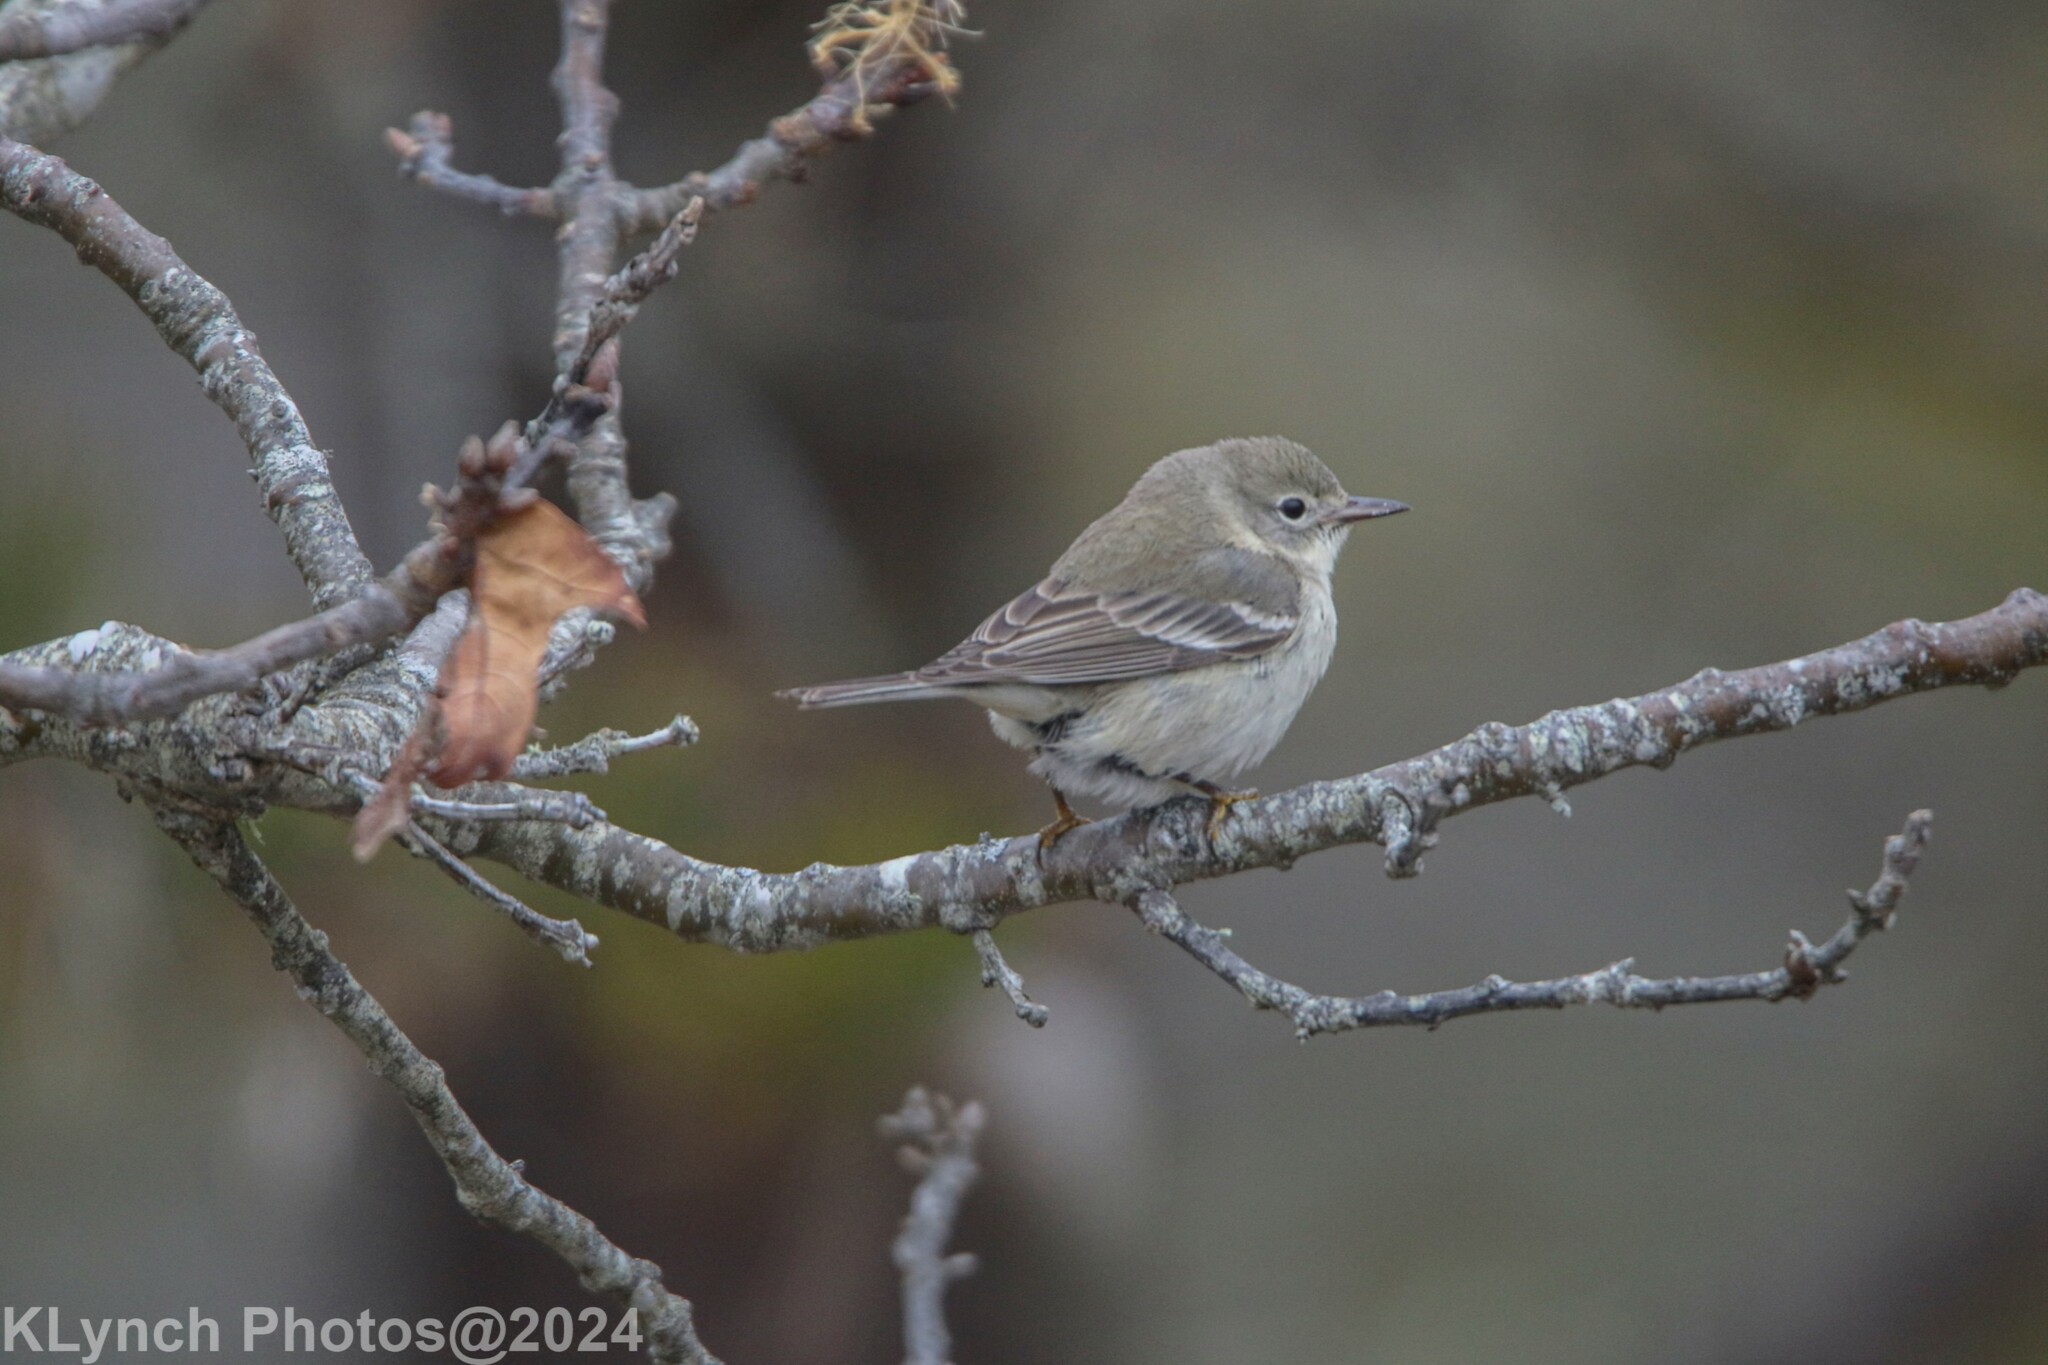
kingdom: Animalia
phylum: Chordata
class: Aves
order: Passeriformes
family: Parulidae
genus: Setophaga
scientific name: Setophaga pinus
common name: Pine warbler
